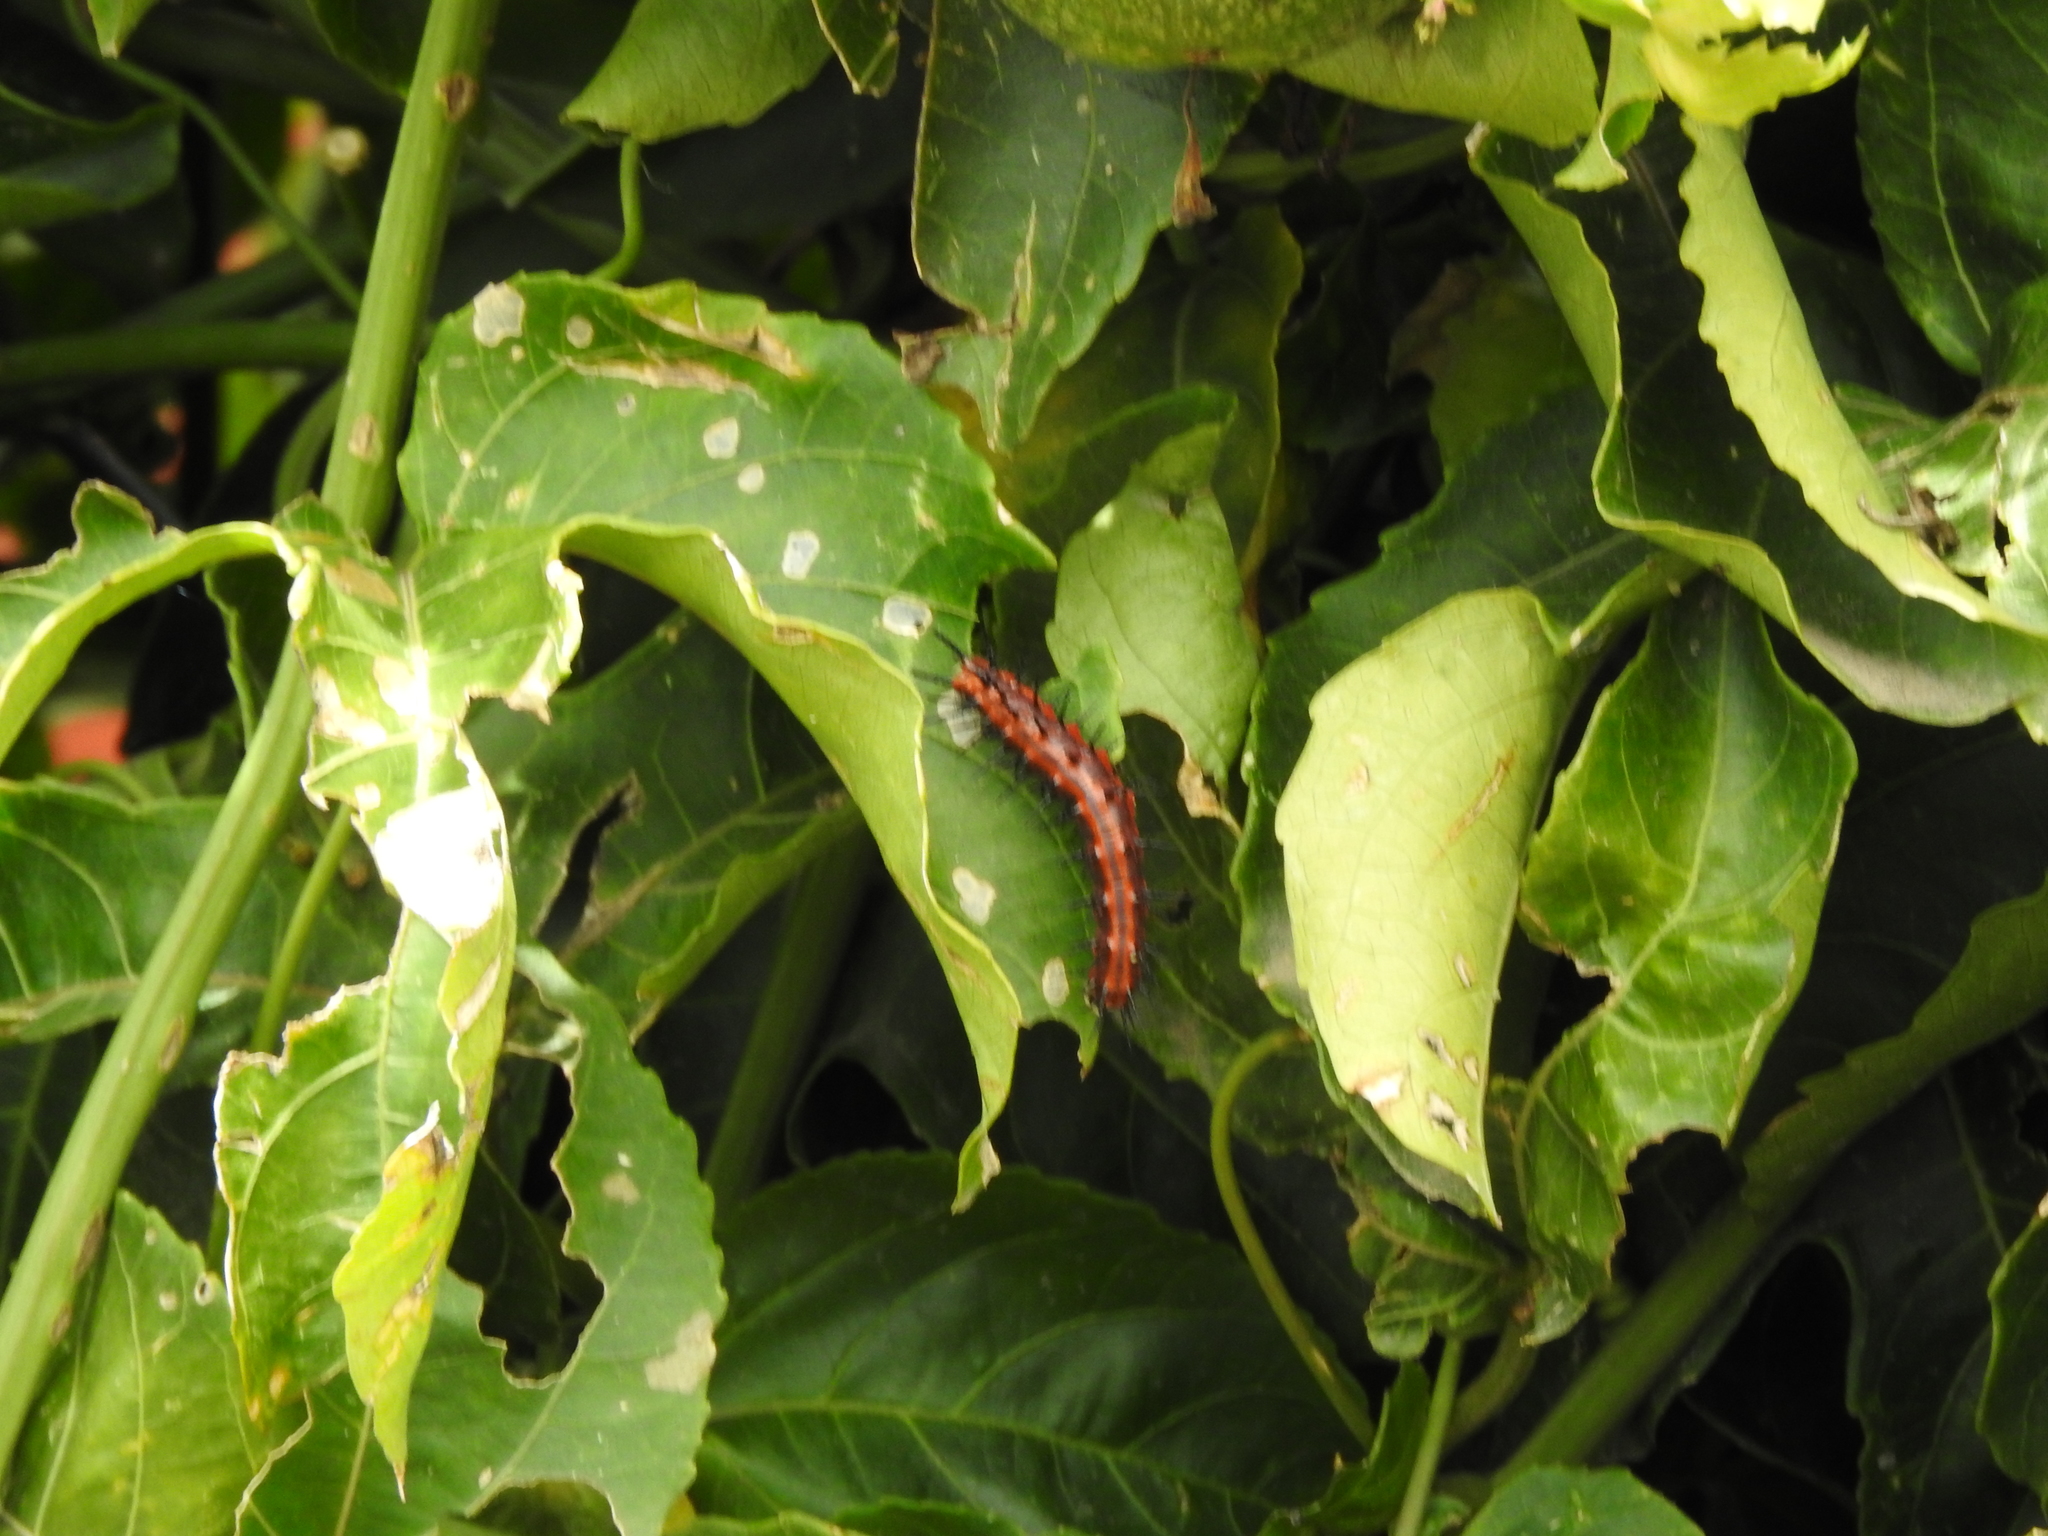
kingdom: Animalia
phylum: Arthropoda
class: Insecta
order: Lepidoptera
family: Nymphalidae
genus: Dione
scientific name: Dione vanillae
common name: Gulf fritillary
